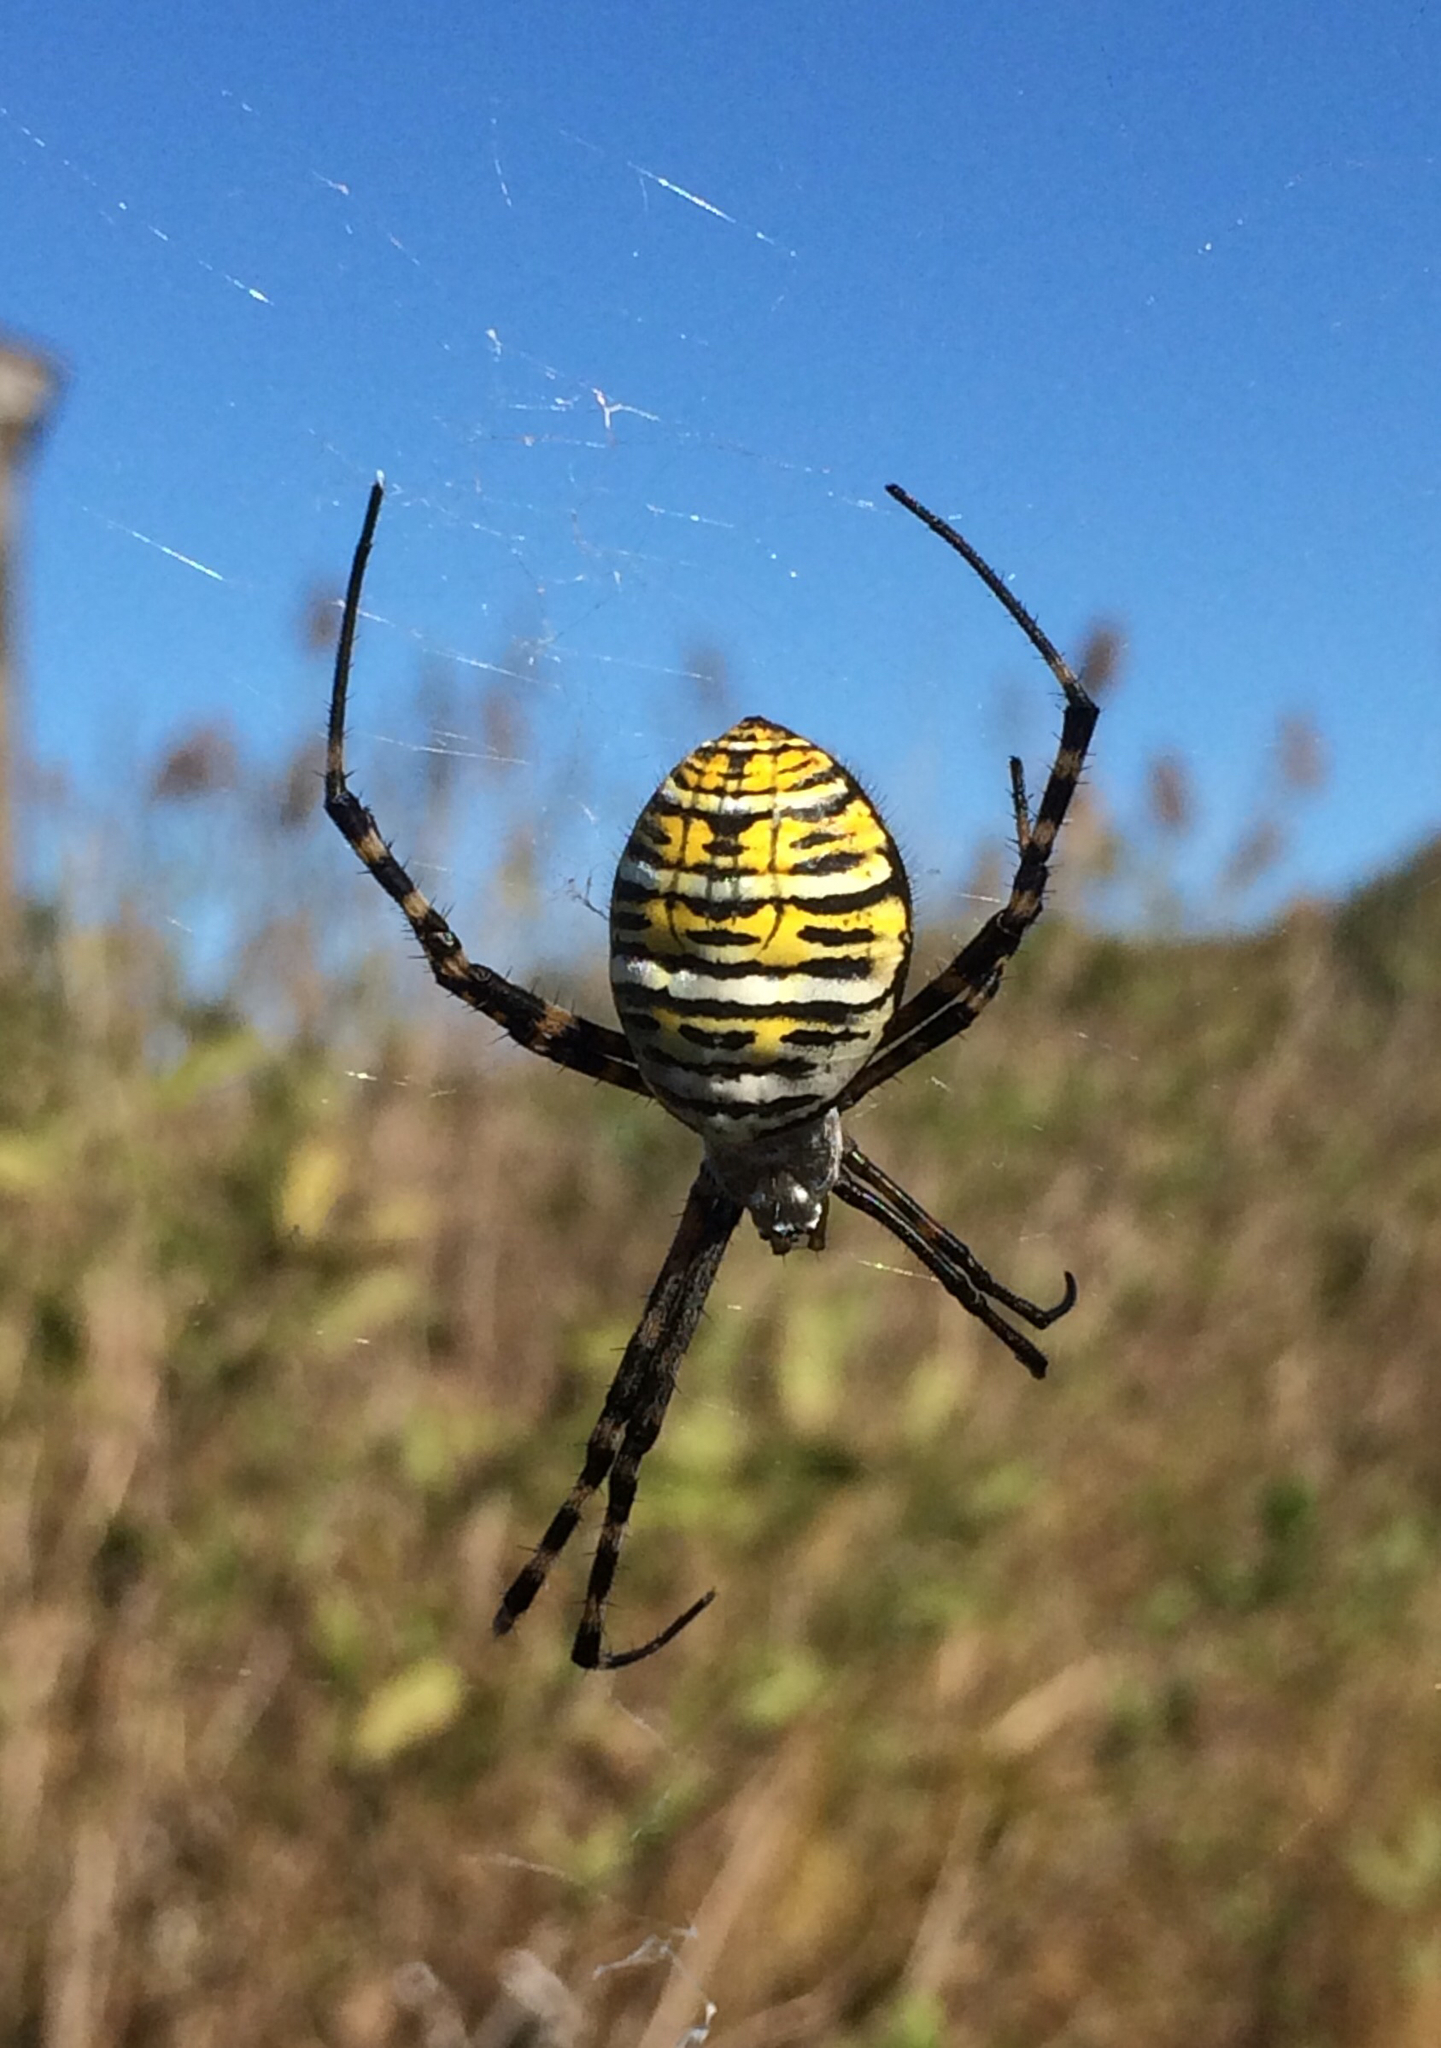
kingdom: Animalia
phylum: Arthropoda
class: Arachnida
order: Araneae
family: Araneidae
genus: Argiope
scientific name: Argiope trifasciata
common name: Banded garden spider
